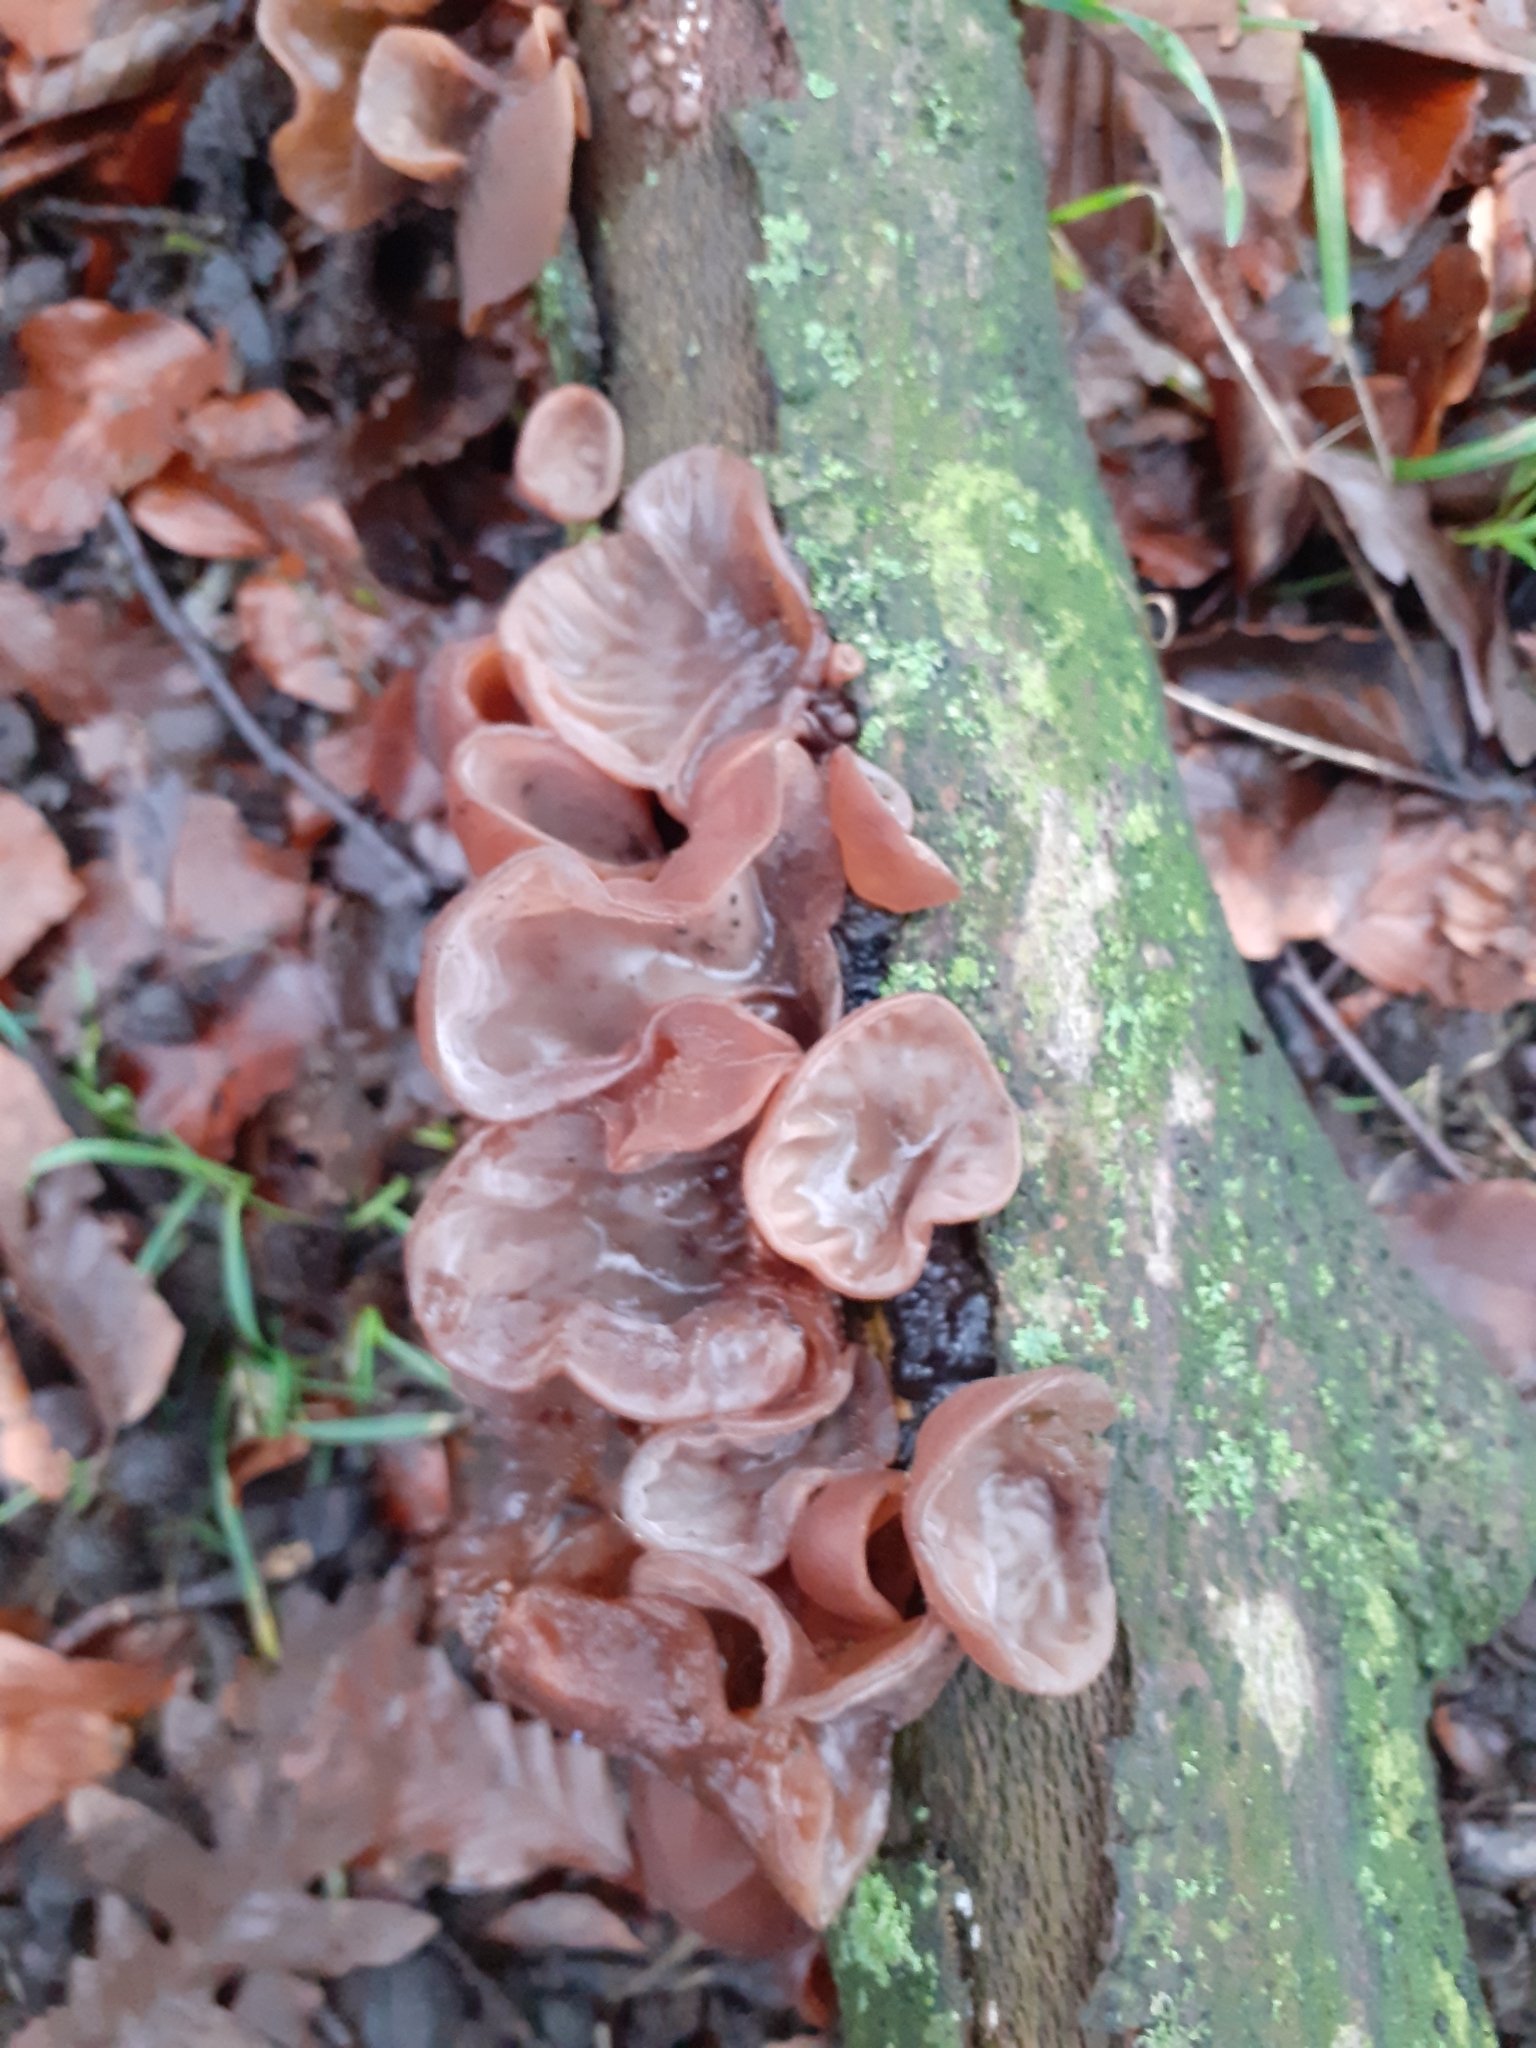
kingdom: Fungi
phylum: Basidiomycota
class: Agaricomycetes
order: Auriculariales
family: Auriculariaceae
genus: Auricularia
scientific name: Auricularia auricula-judae
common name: Jelly ear
